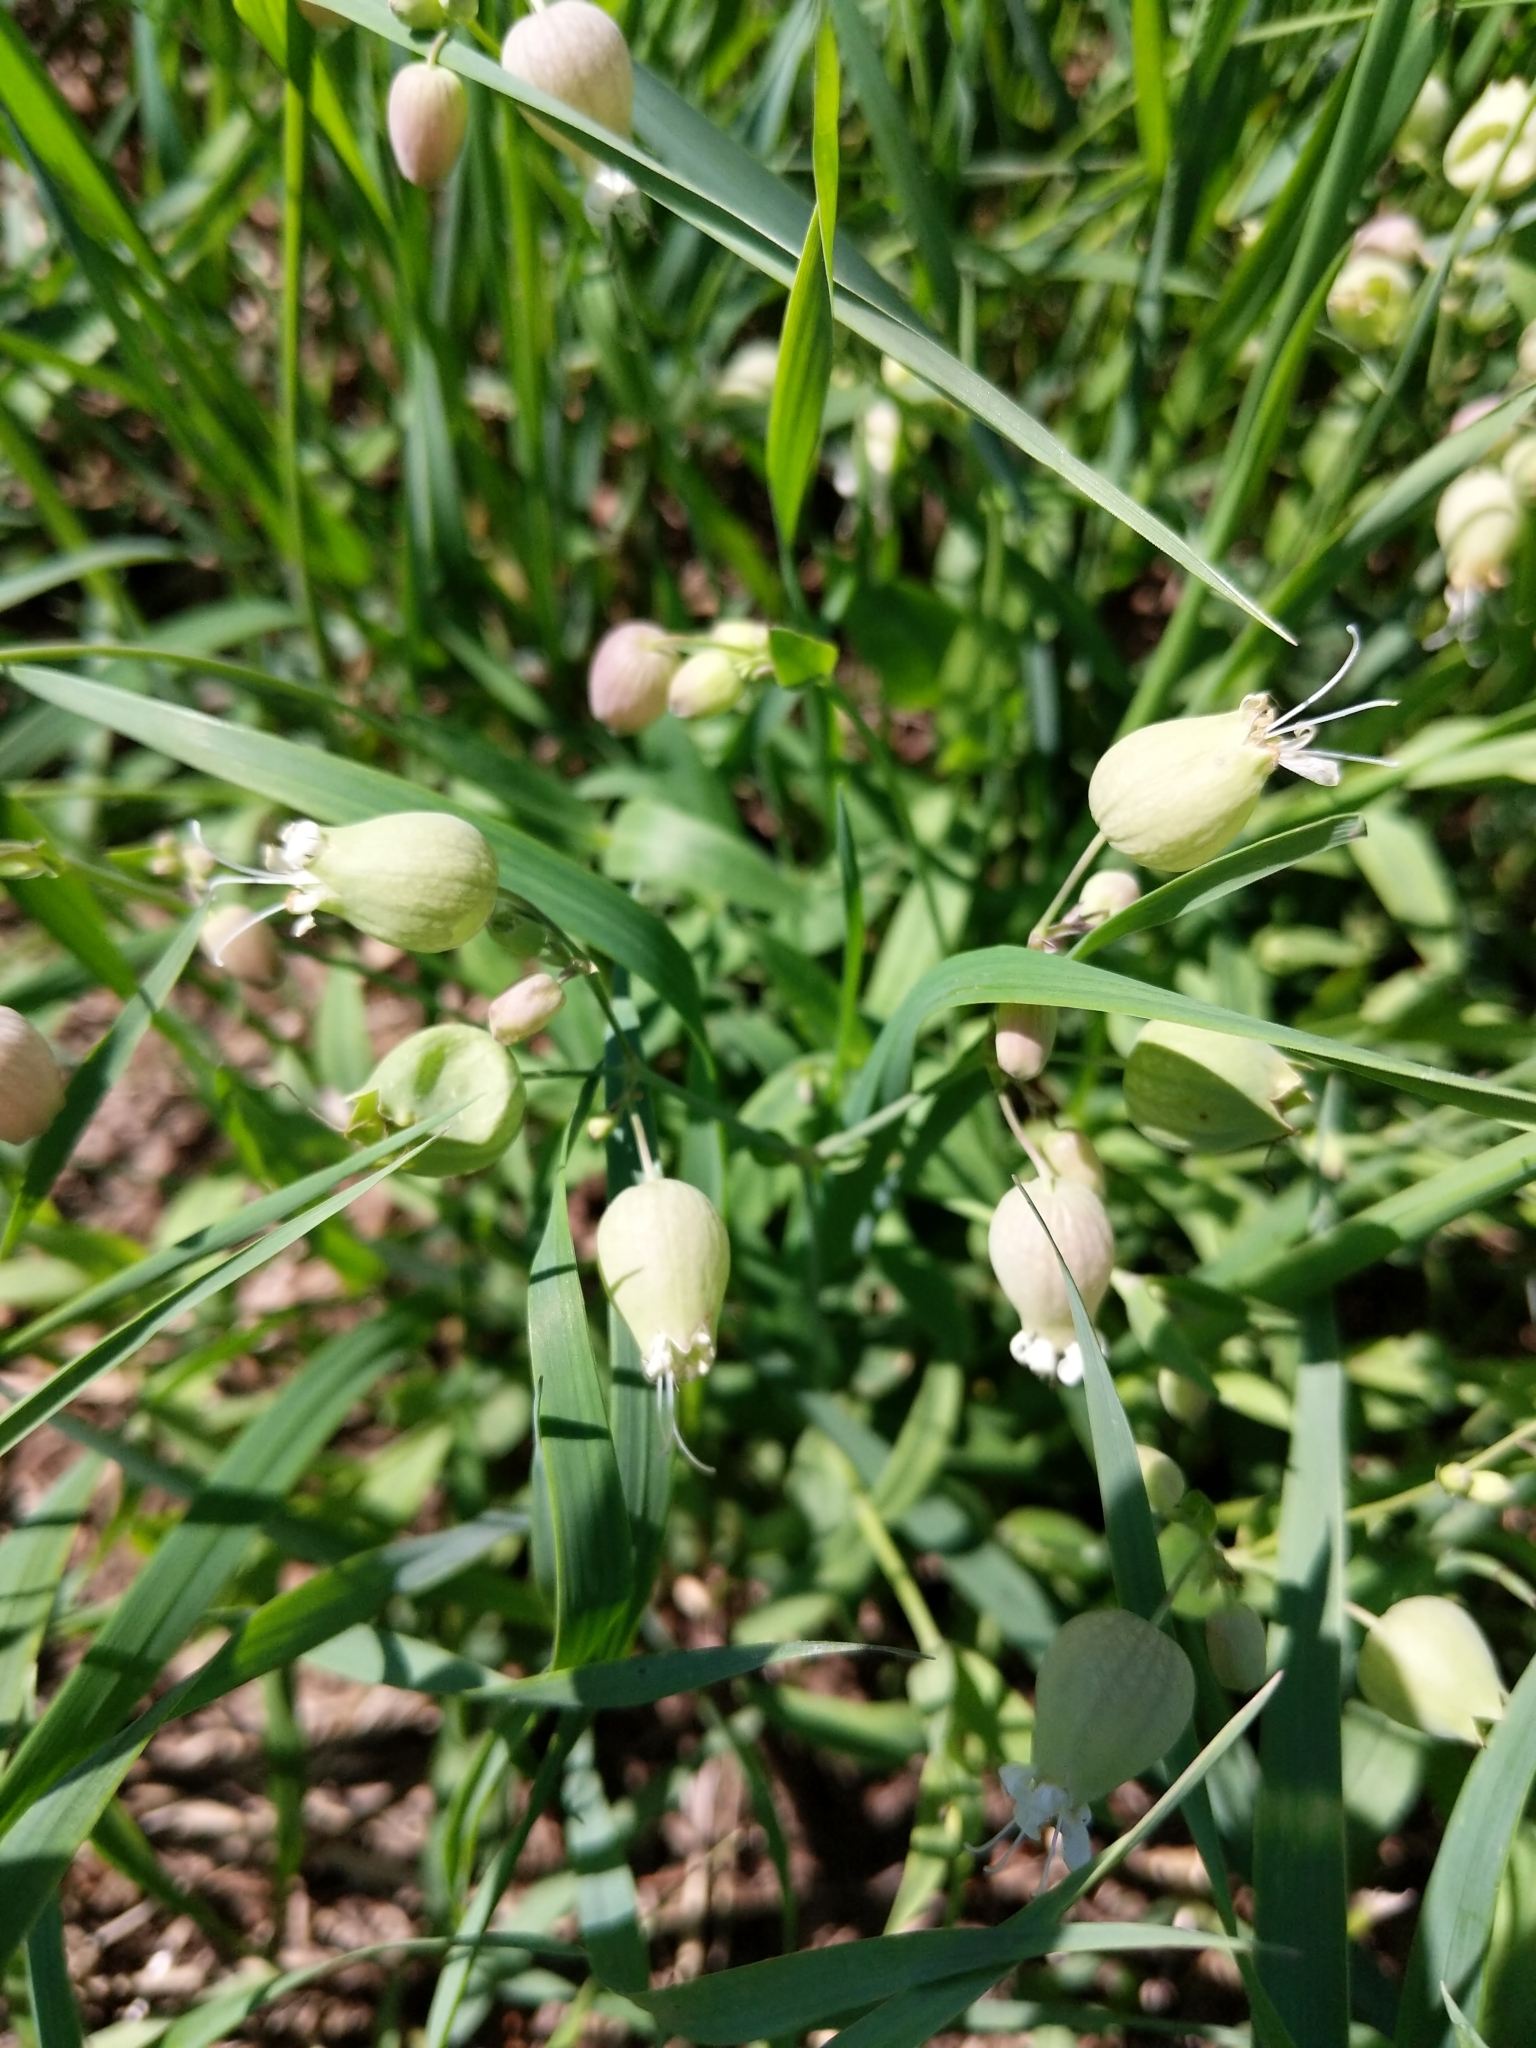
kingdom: Plantae
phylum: Tracheophyta
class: Magnoliopsida
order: Caryophyllales
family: Caryophyllaceae
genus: Silene
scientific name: Silene vulgaris
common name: Bladder campion
